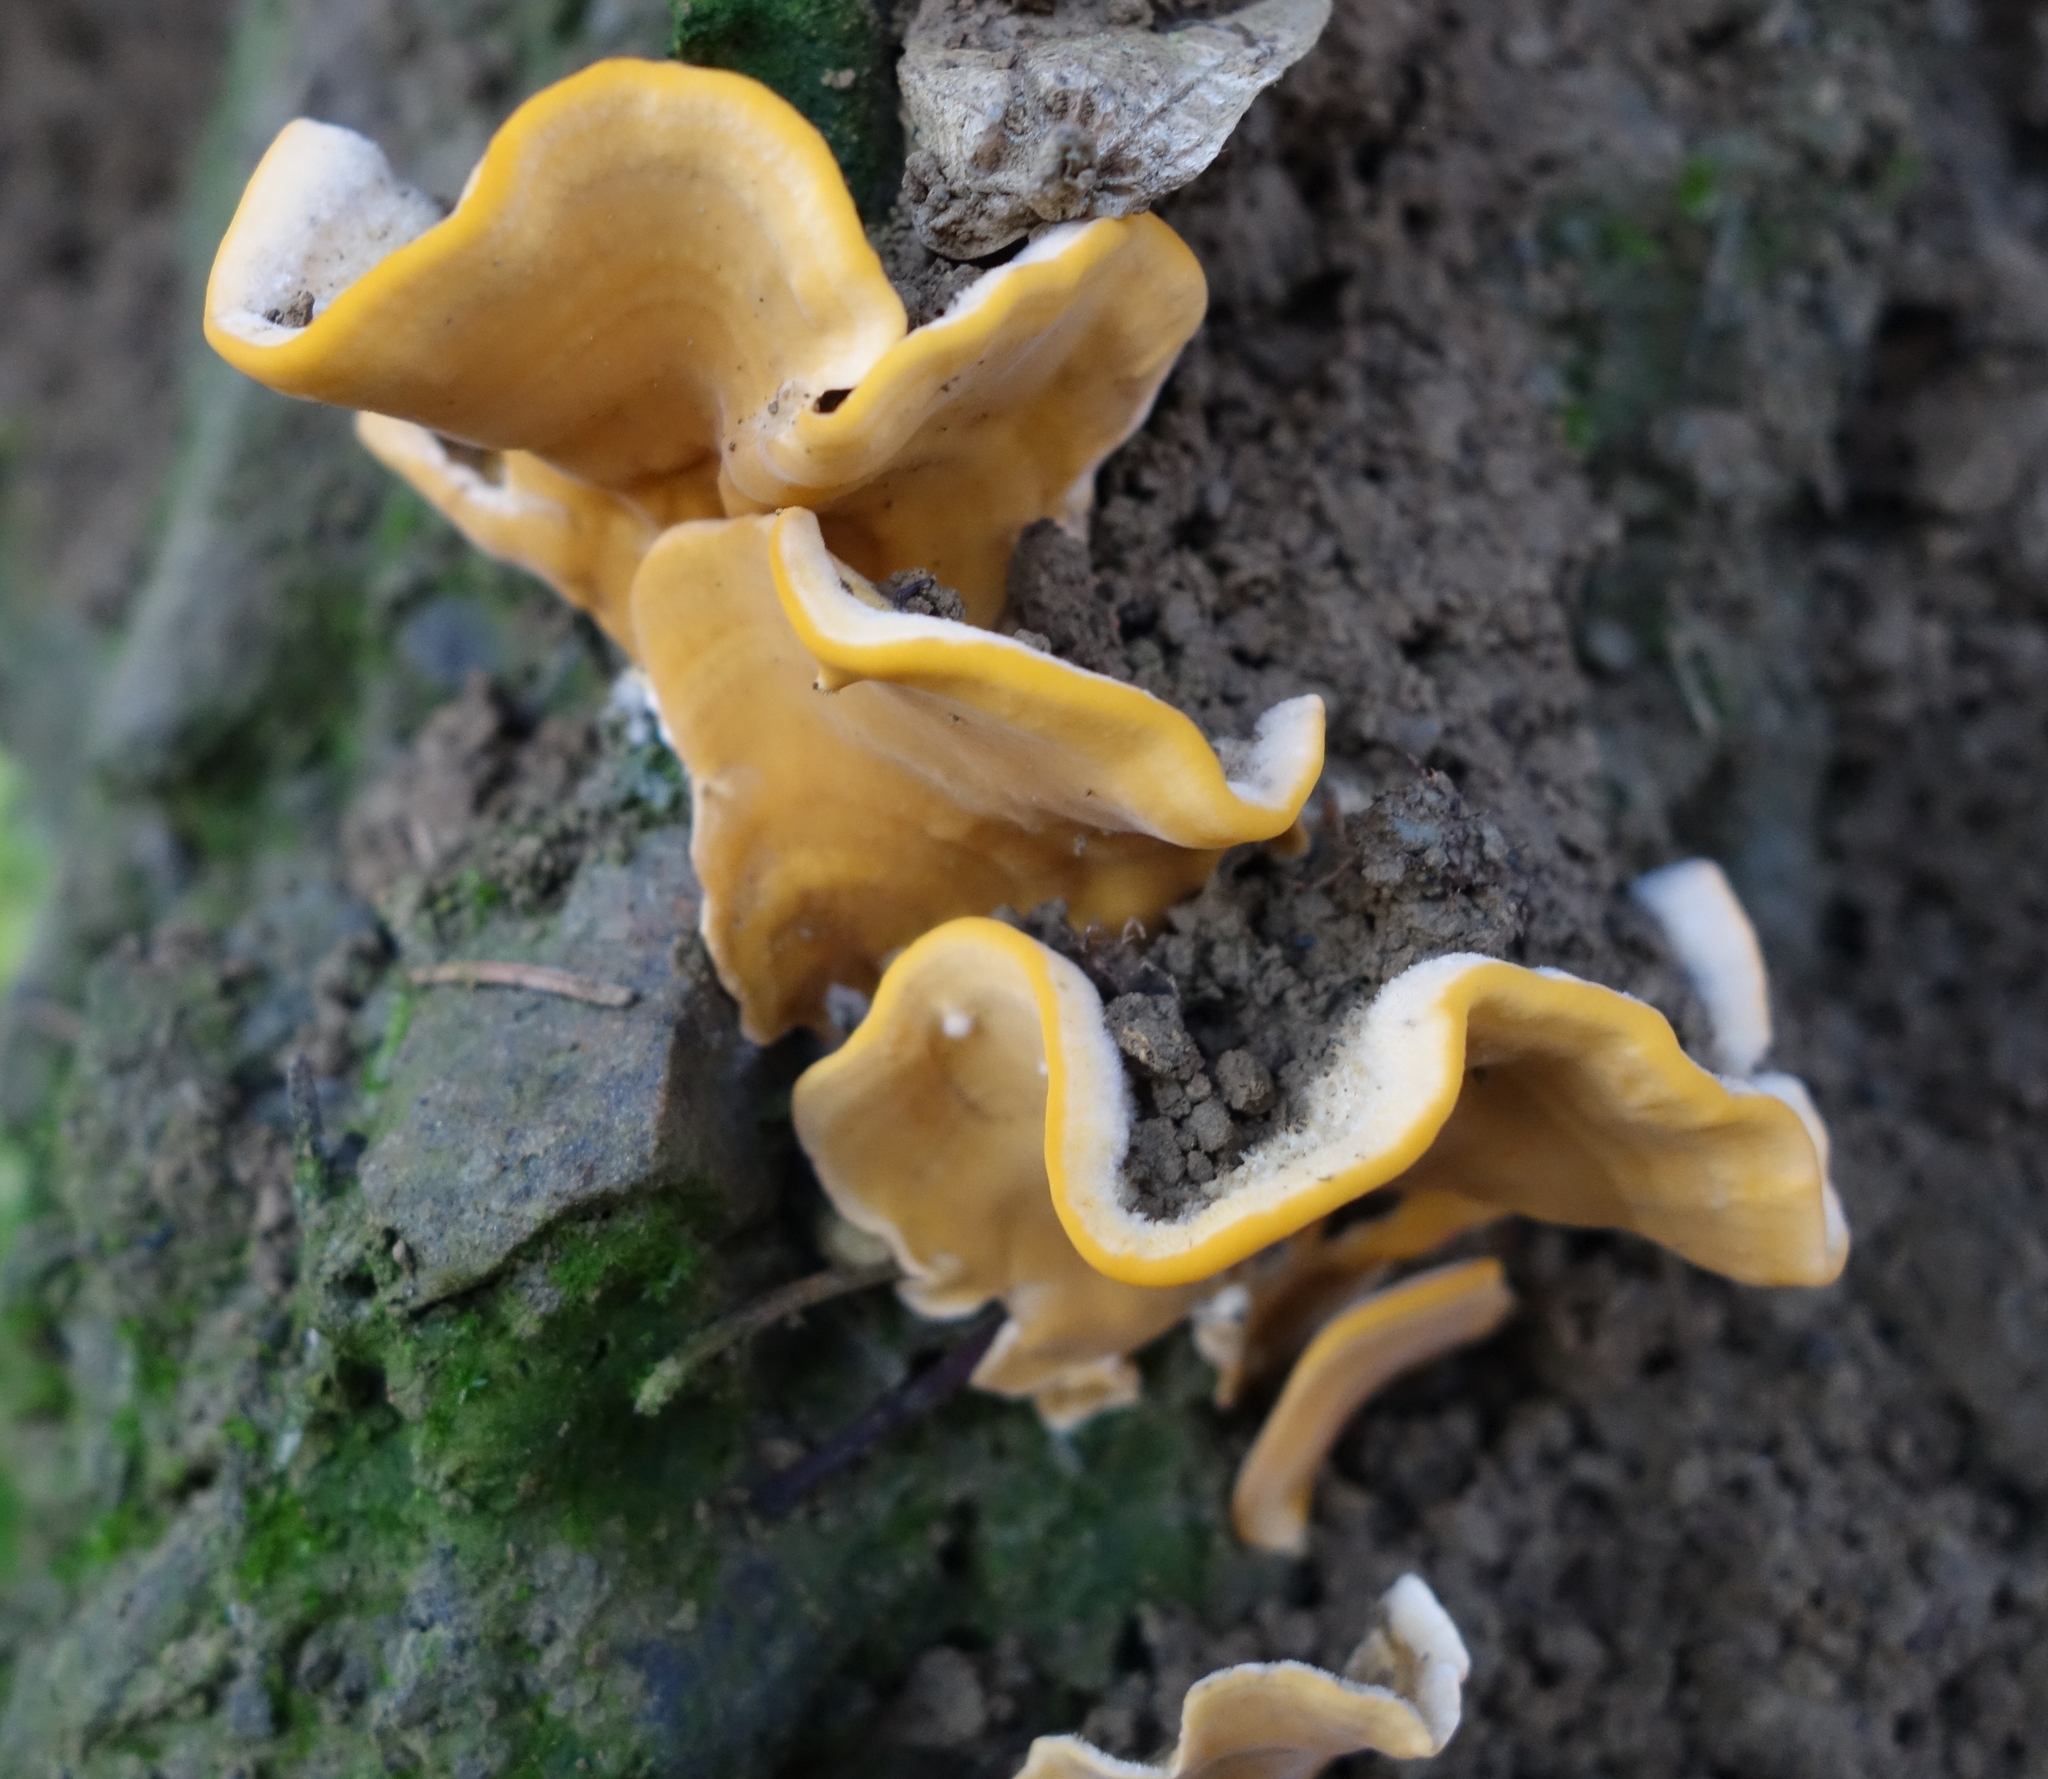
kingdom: Fungi
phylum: Basidiomycota
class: Agaricomycetes
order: Russulales
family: Stereaceae
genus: Stereum
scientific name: Stereum hirsutum
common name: Hairy curtain crust
